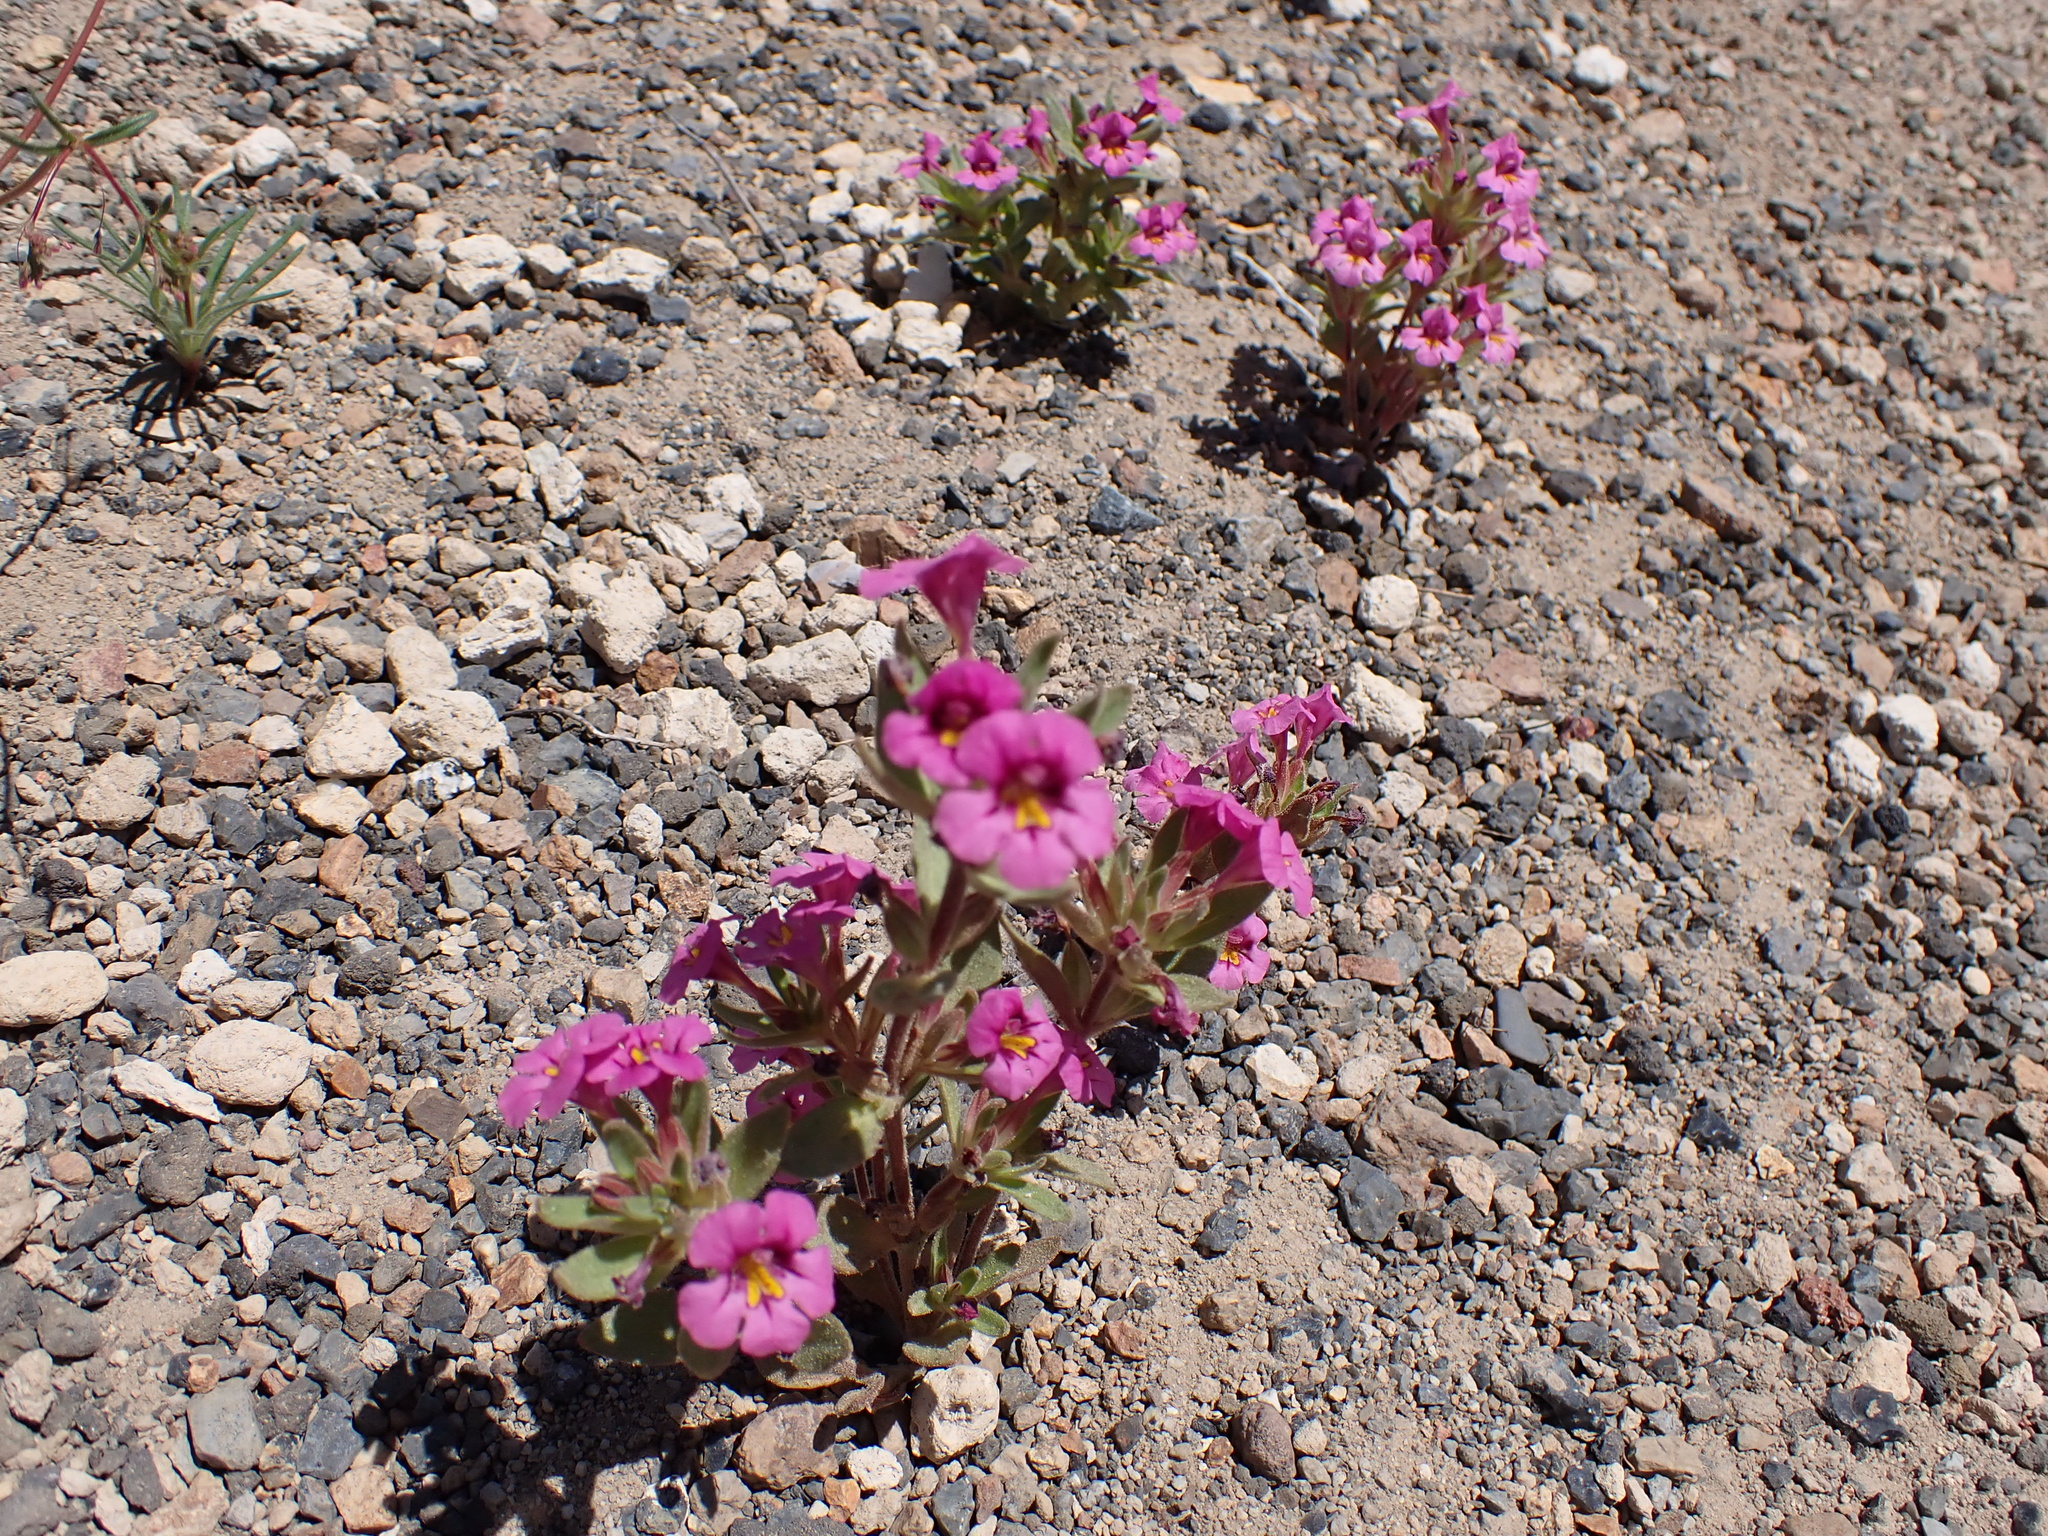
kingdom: Plantae
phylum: Tracheophyta
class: Magnoliopsida
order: Lamiales
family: Phrymaceae
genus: Diplacus
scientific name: Diplacus mephiticus
